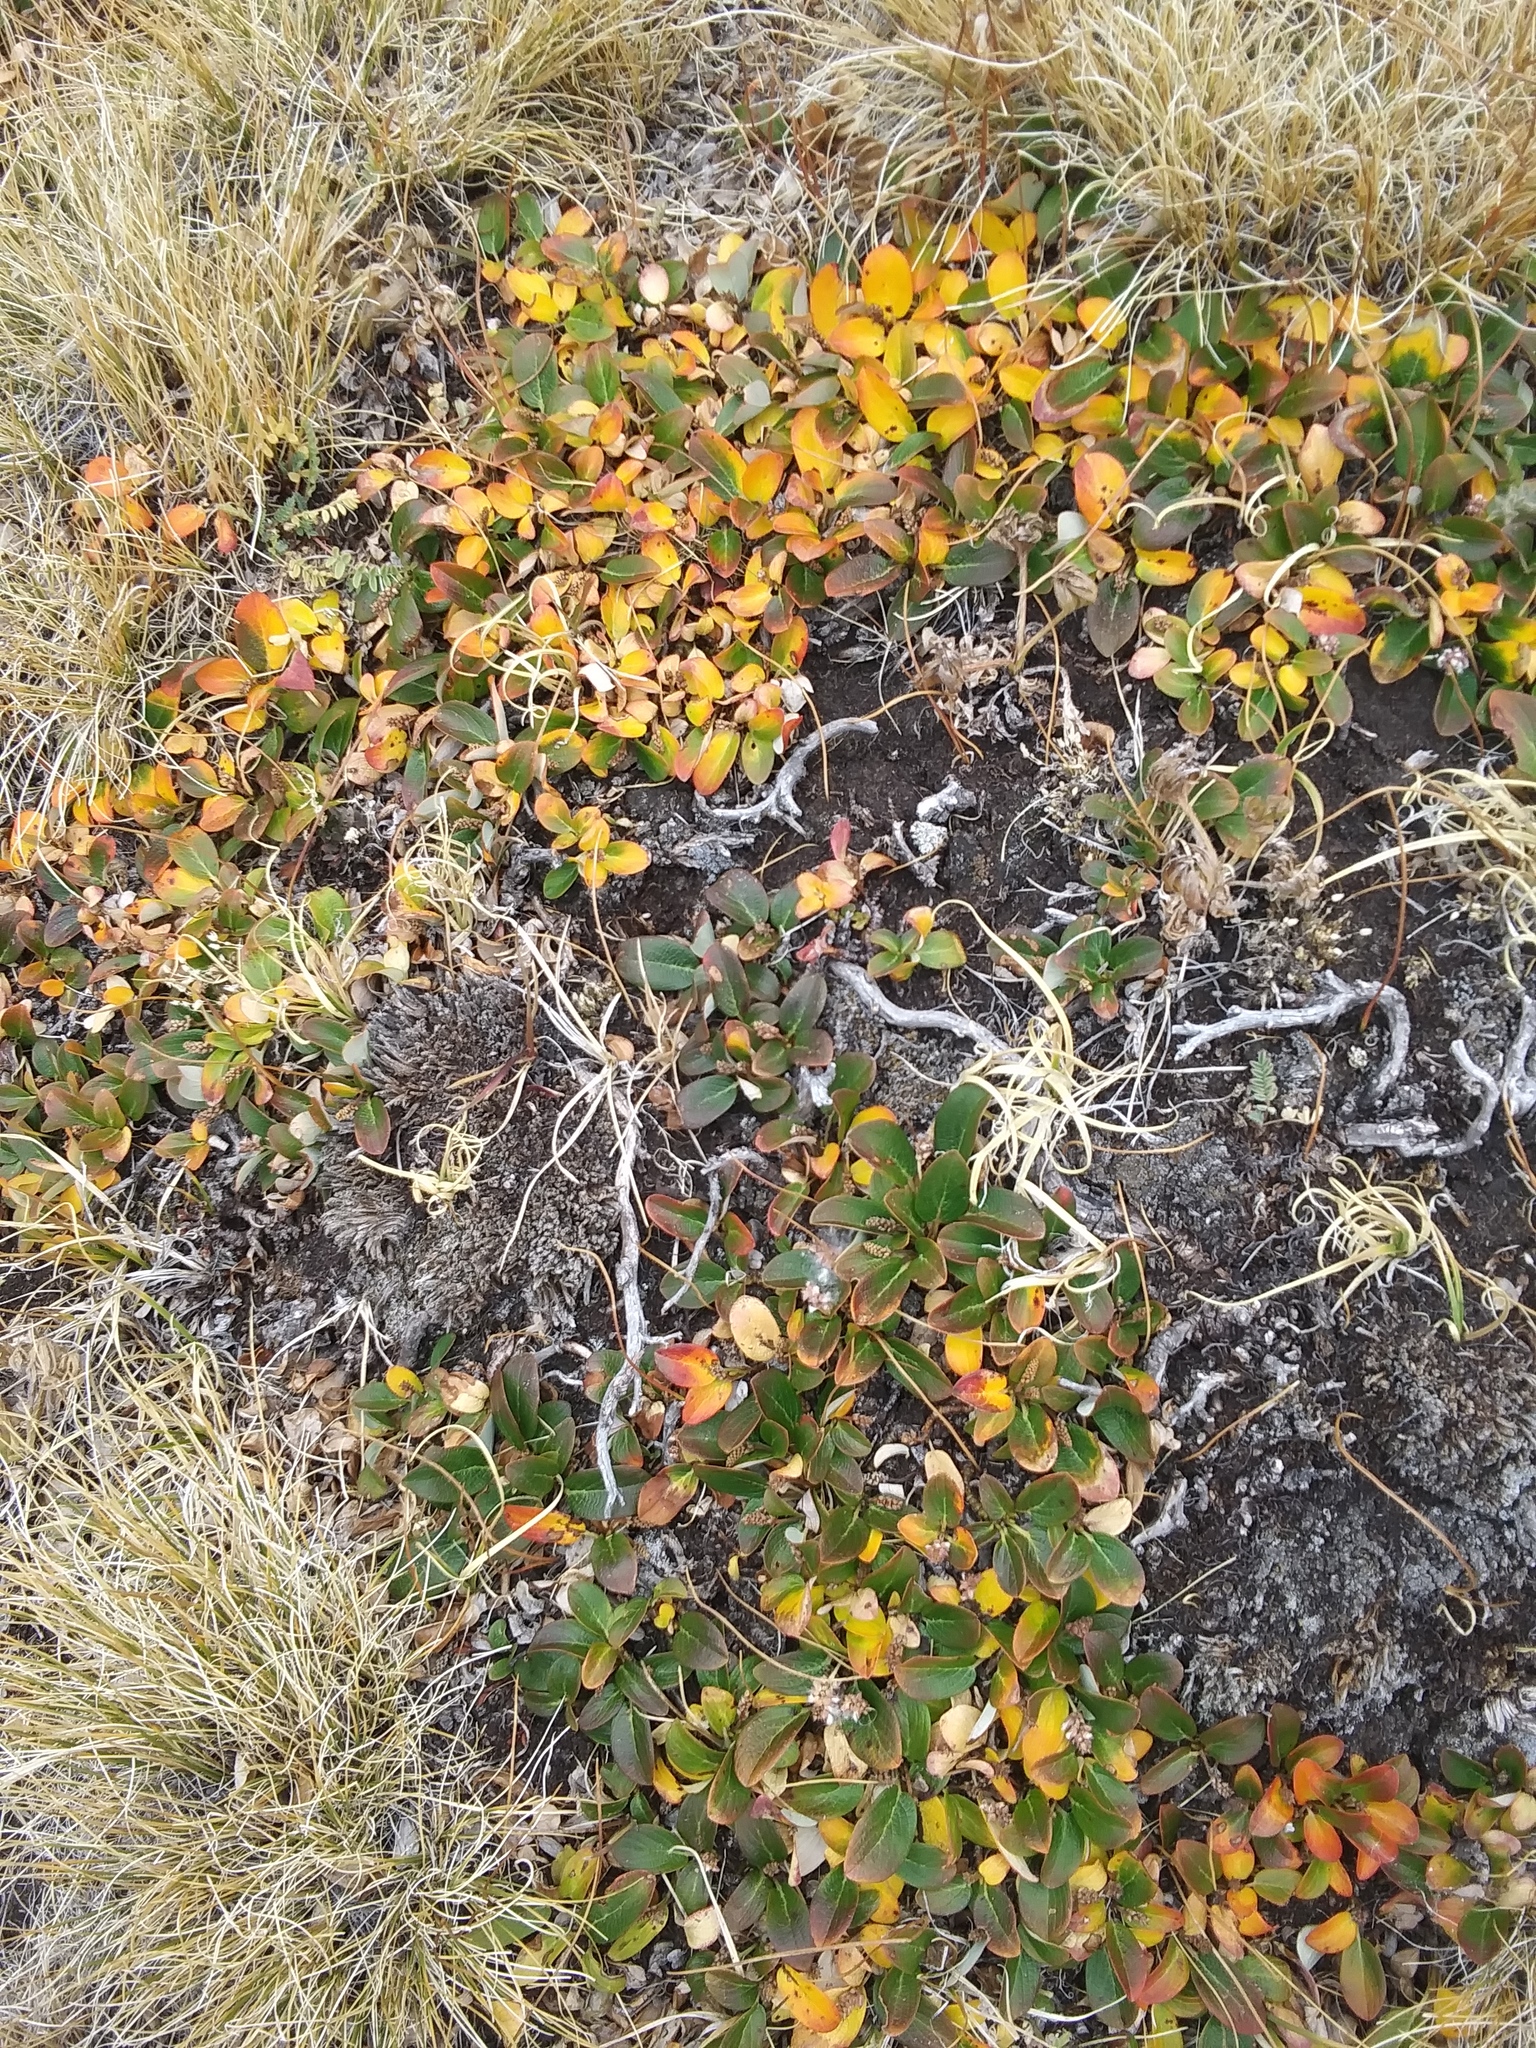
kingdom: Plantae
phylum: Tracheophyta
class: Magnoliopsida
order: Malpighiales
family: Salicaceae
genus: Salix
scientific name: Salix nivalis
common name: Dwarf snow willow
